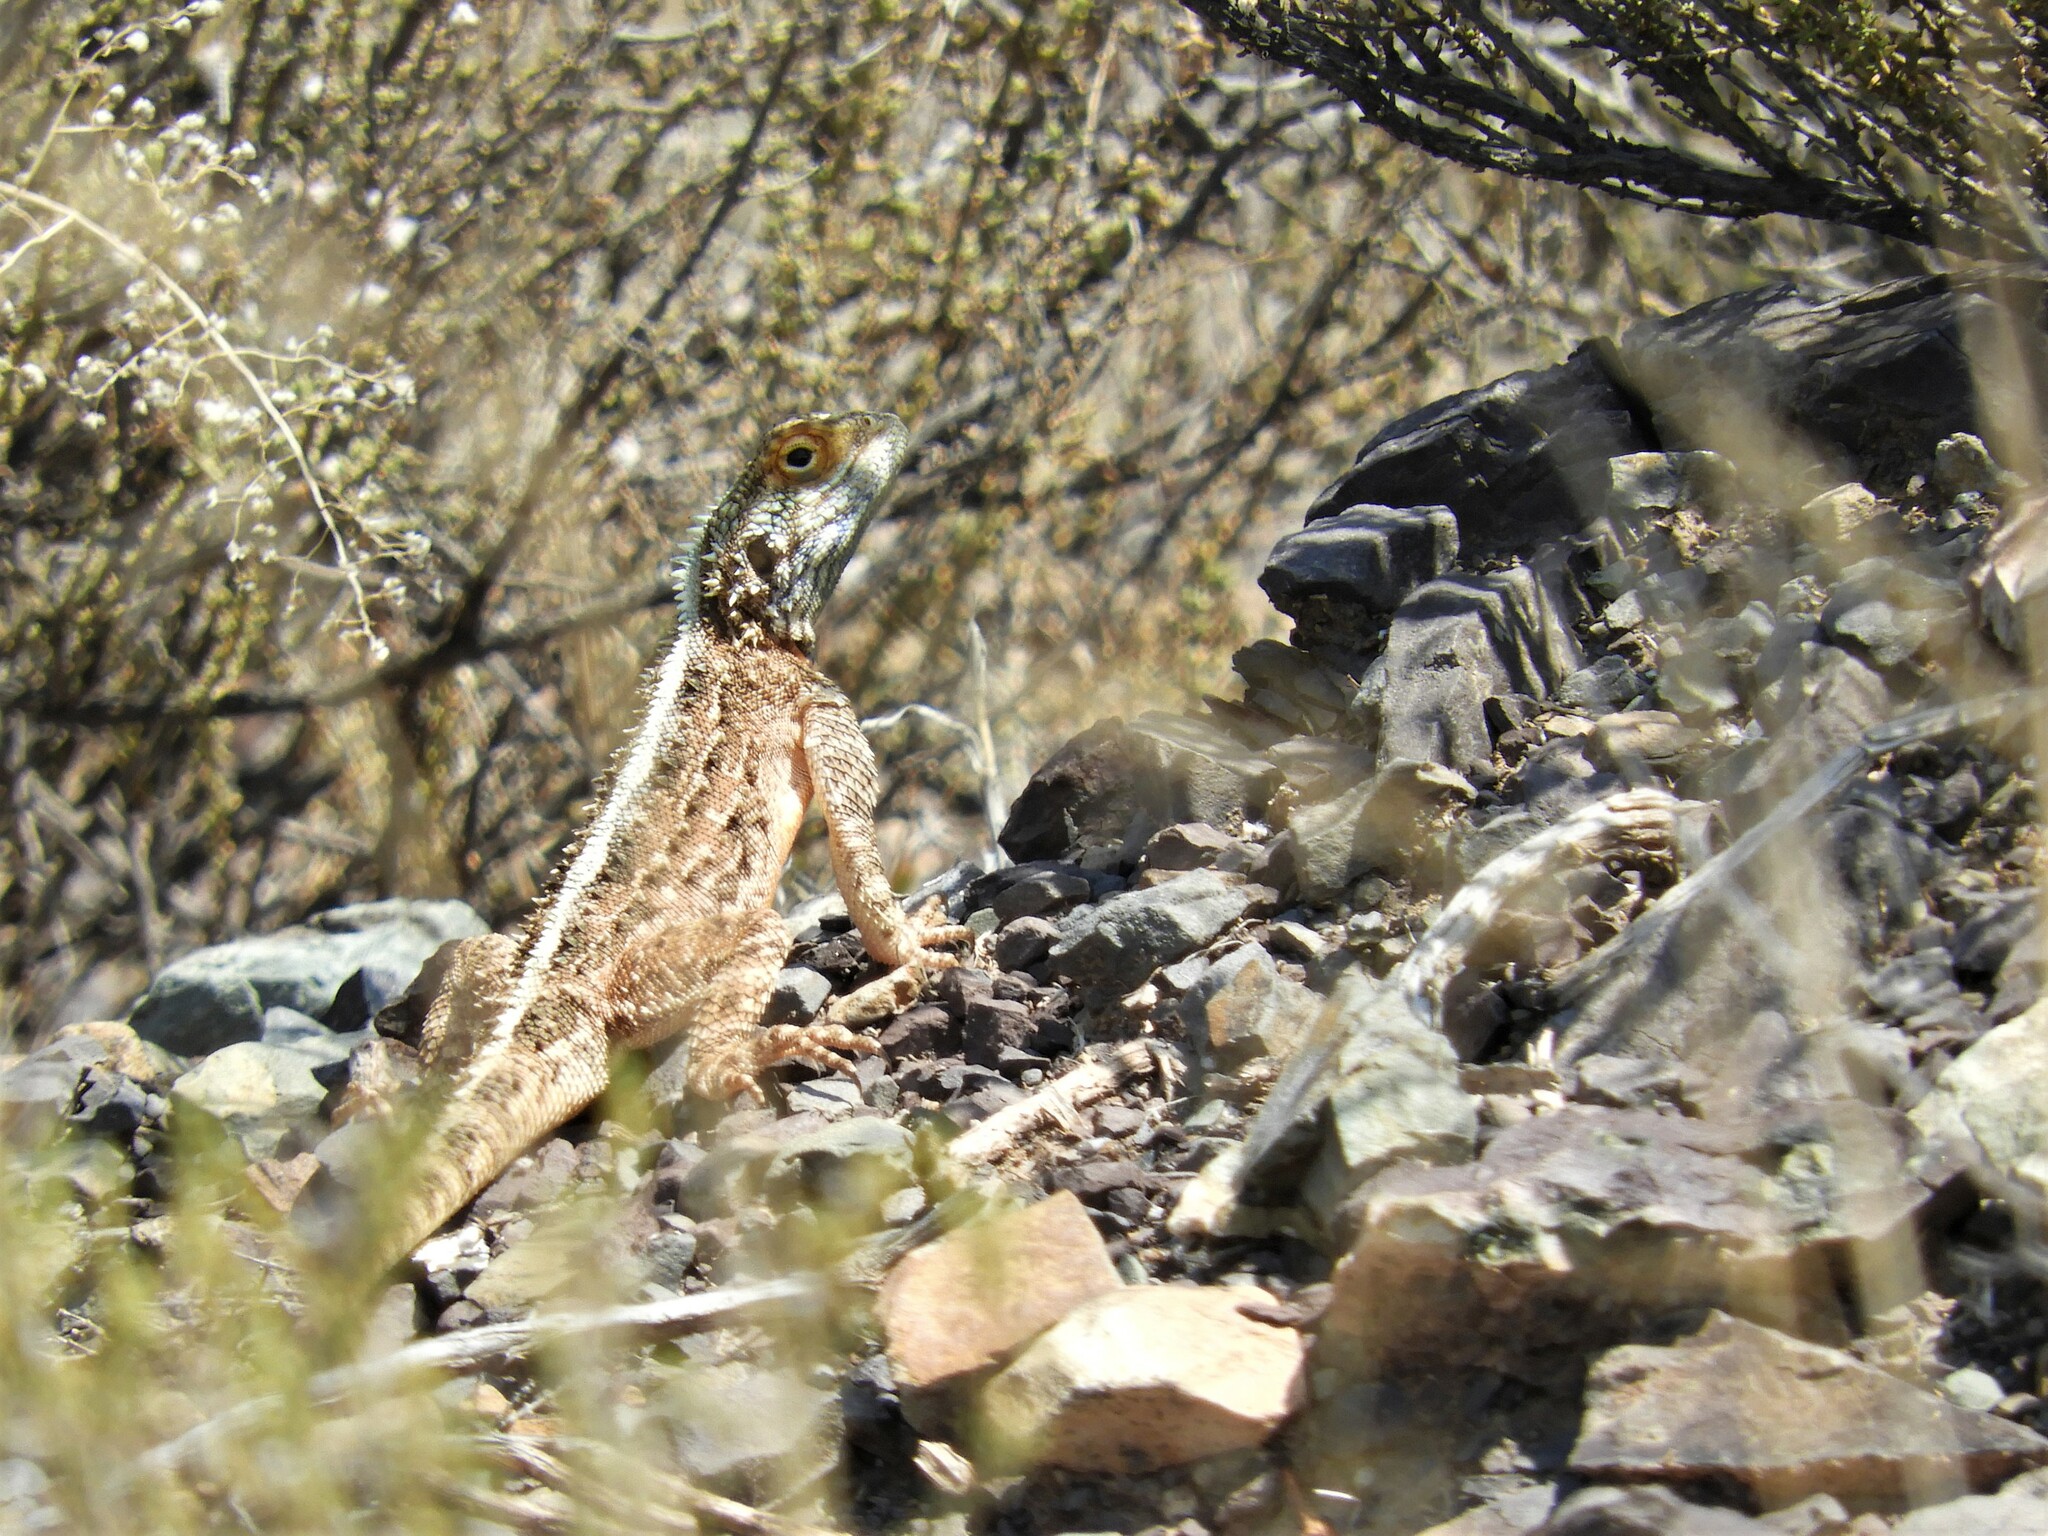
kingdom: Animalia
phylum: Chordata
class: Squamata
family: Agamidae
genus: Agama
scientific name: Agama aculeata
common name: Common ground agama
